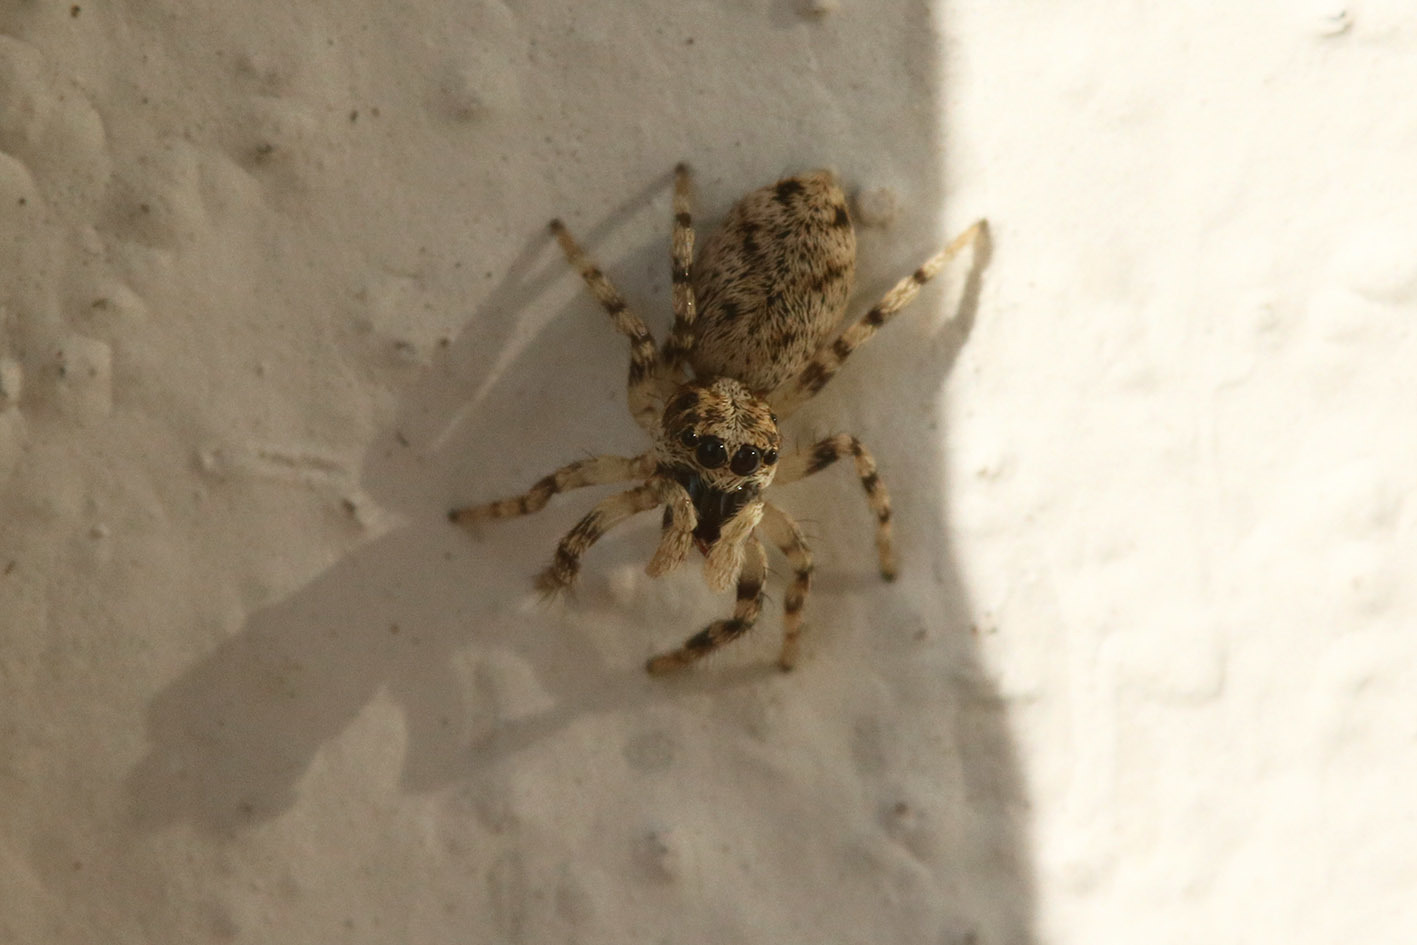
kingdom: Animalia
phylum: Arthropoda
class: Arachnida
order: Araneae
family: Salticidae
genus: Salticus
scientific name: Salticus mutabilis
